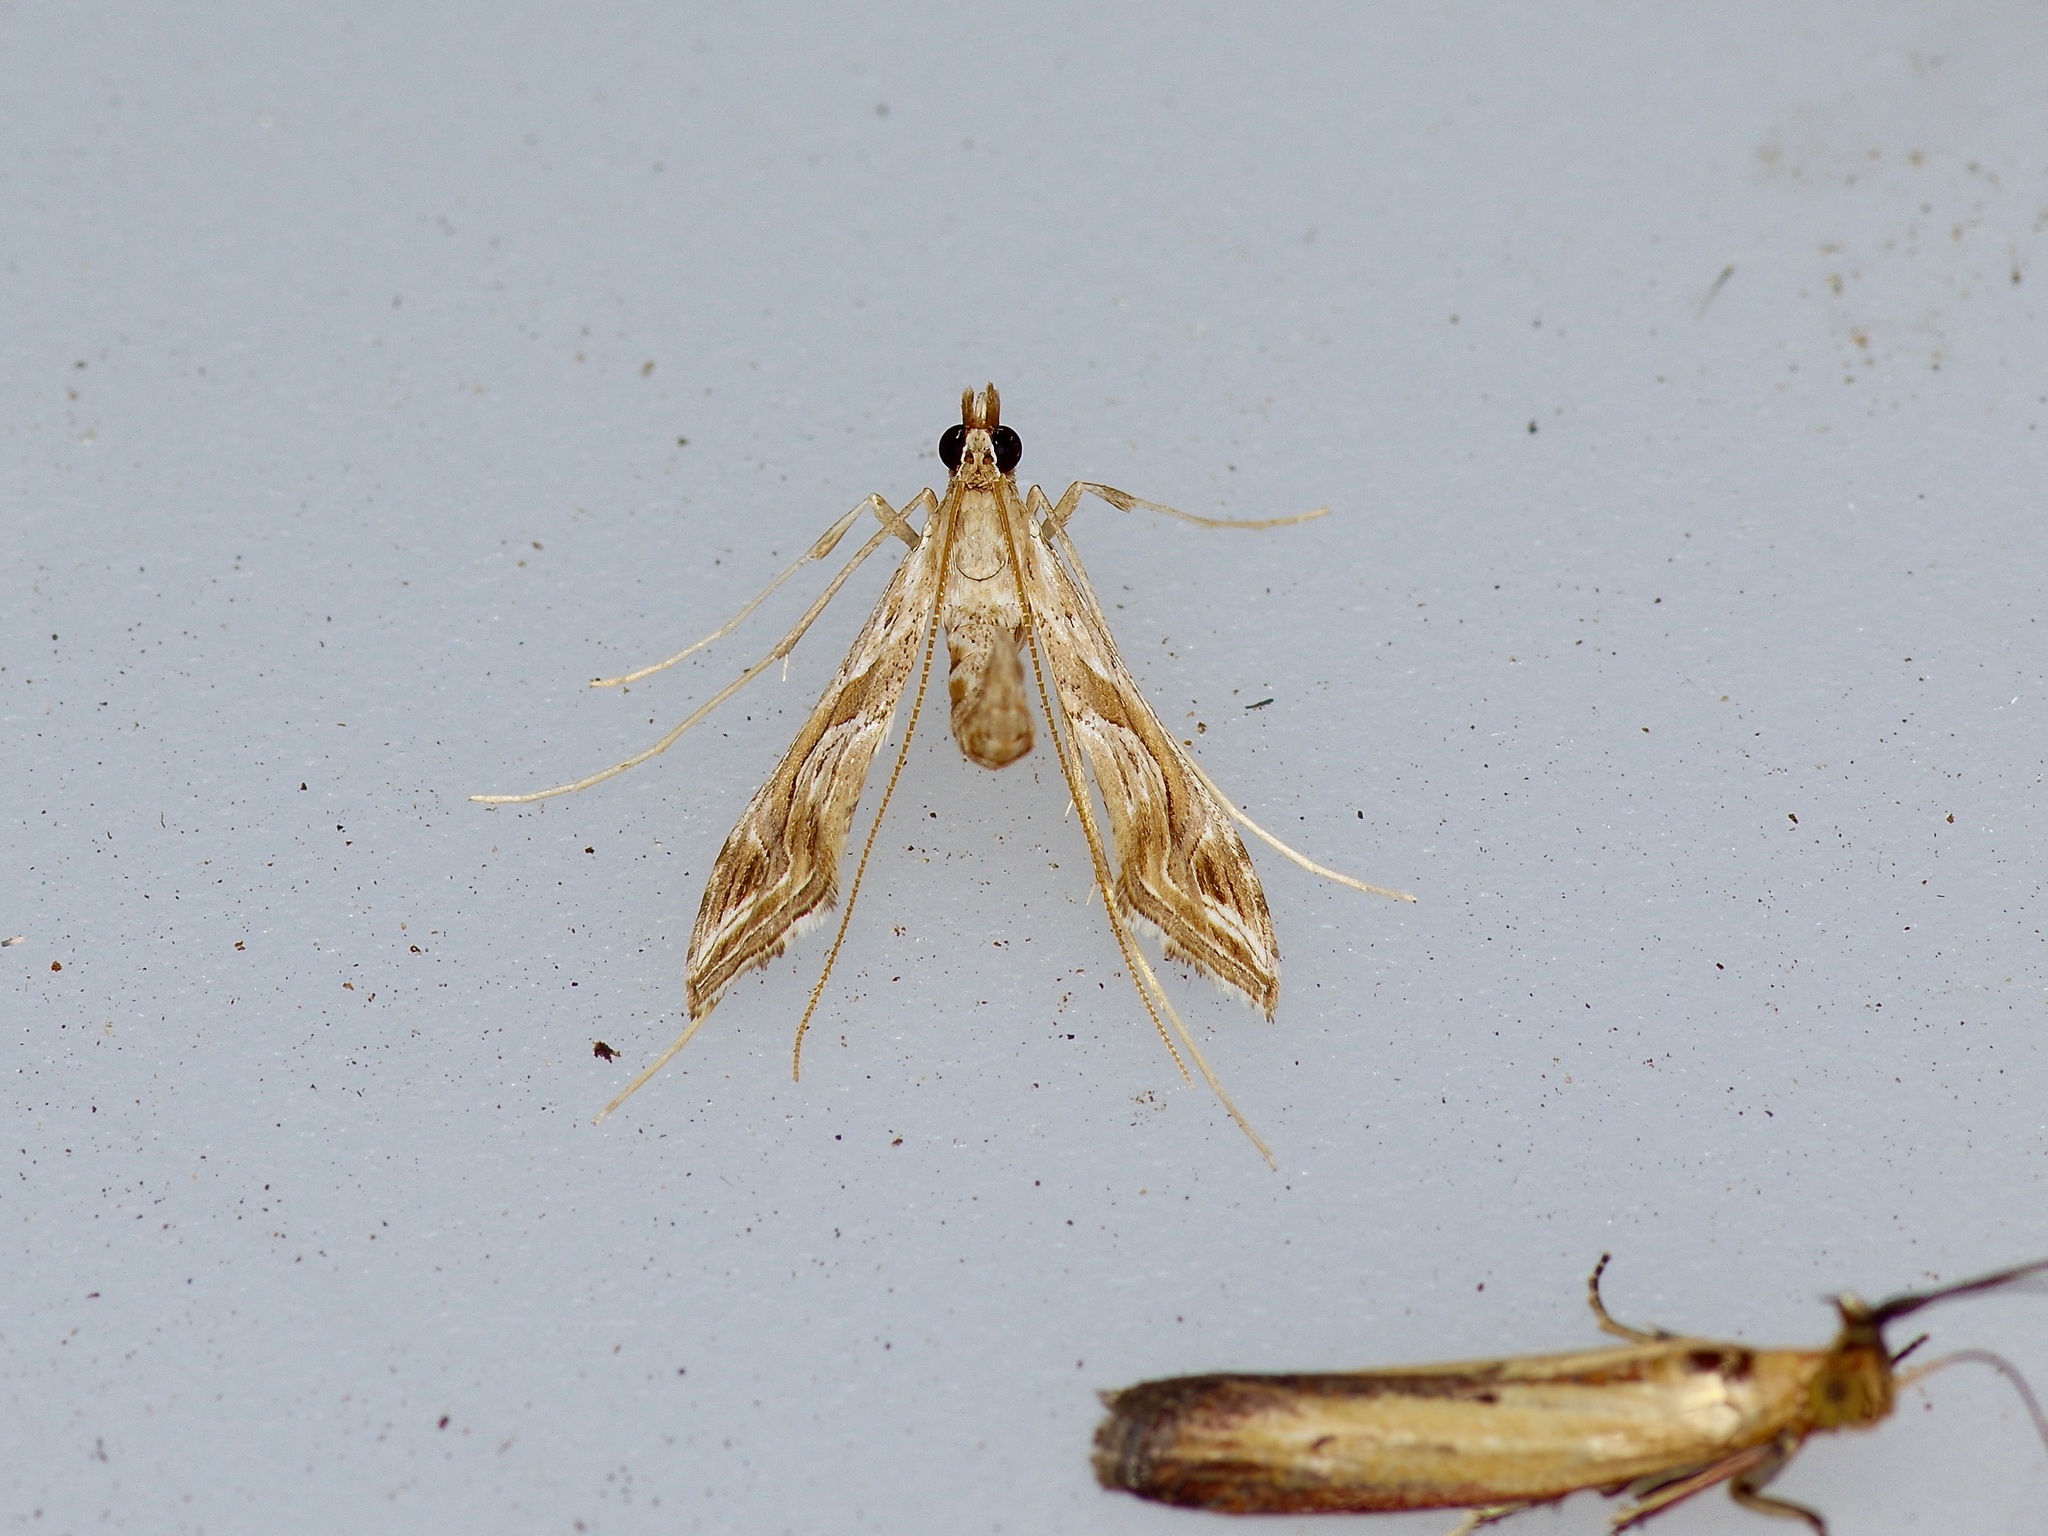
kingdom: Animalia
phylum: Arthropoda
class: Insecta
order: Lepidoptera
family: Crambidae
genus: Lineodes
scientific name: Lineodes integra
